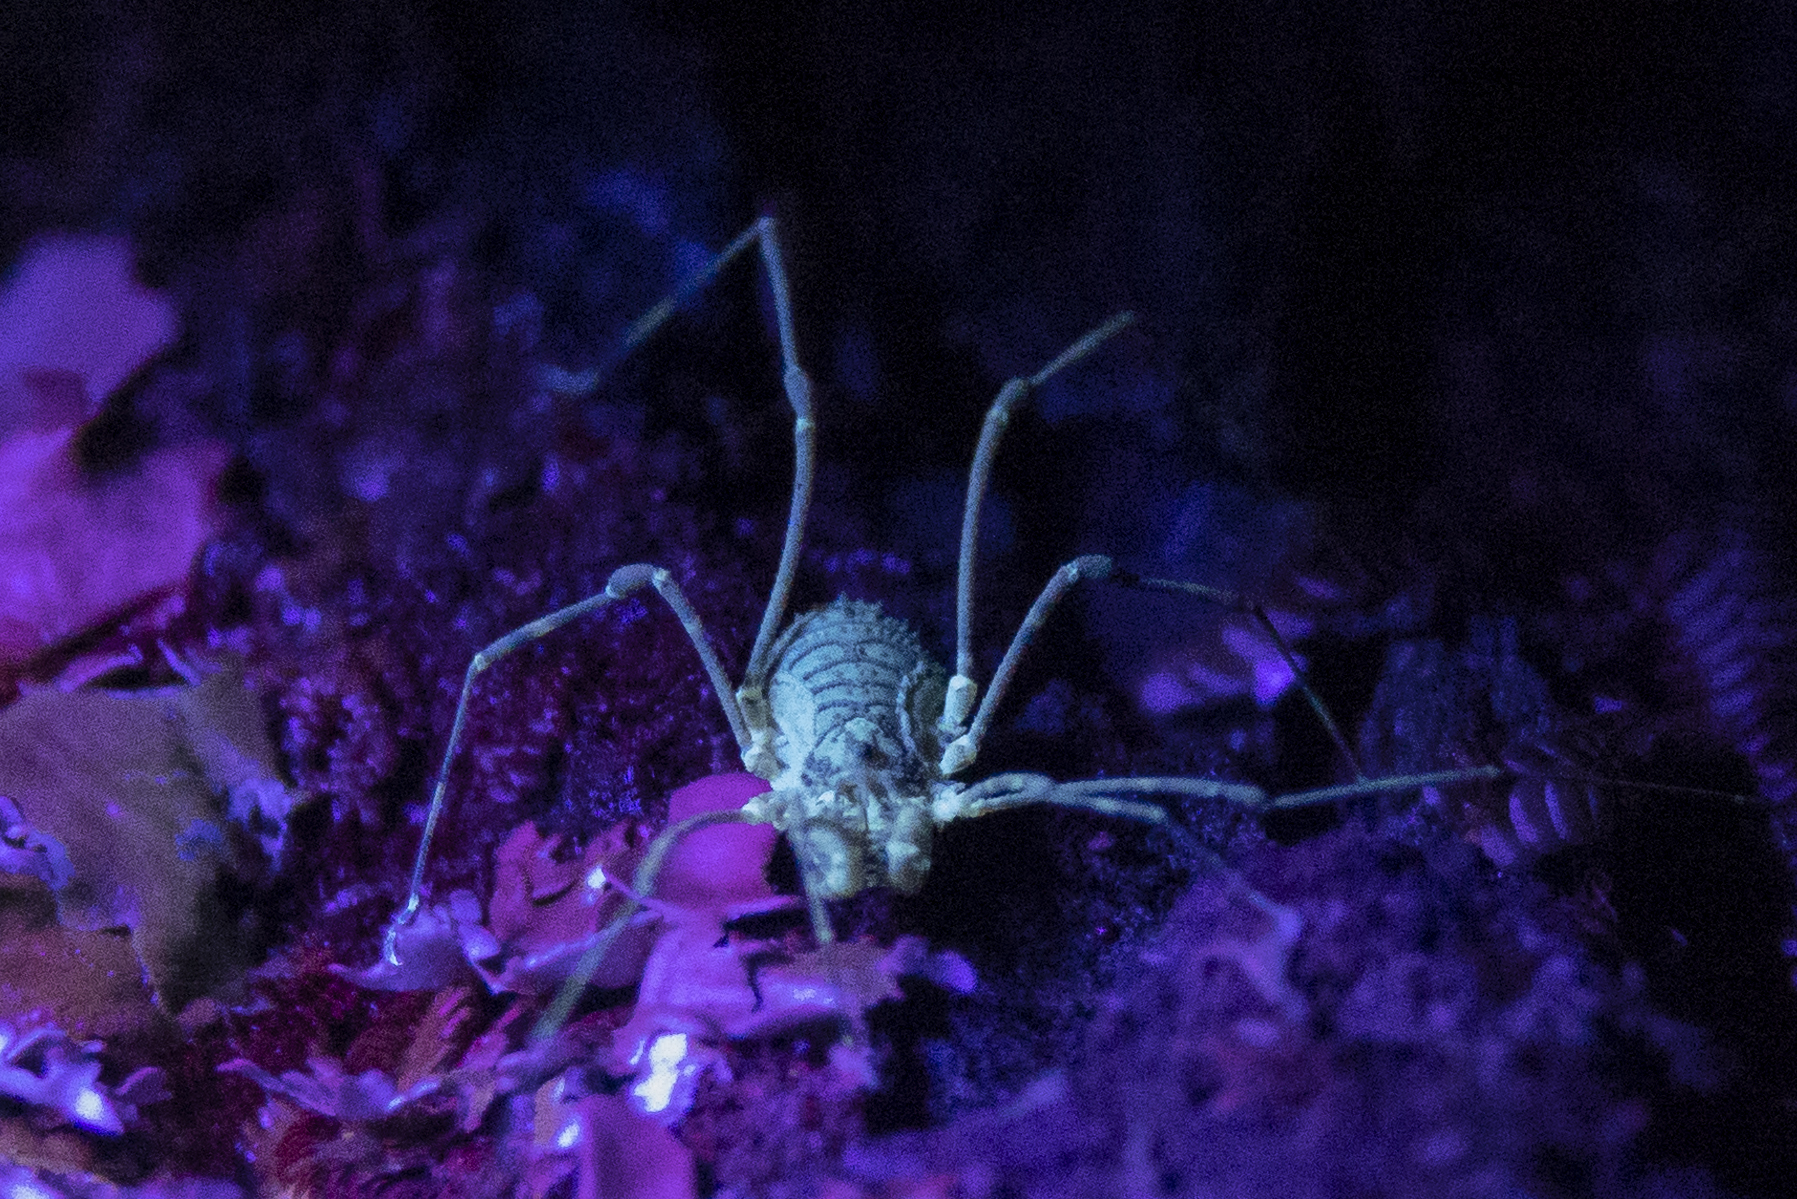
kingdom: Animalia
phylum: Arthropoda
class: Arachnida
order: Opiliones
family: Triaenonychidae
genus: Algidia
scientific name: Algidia interrupta
